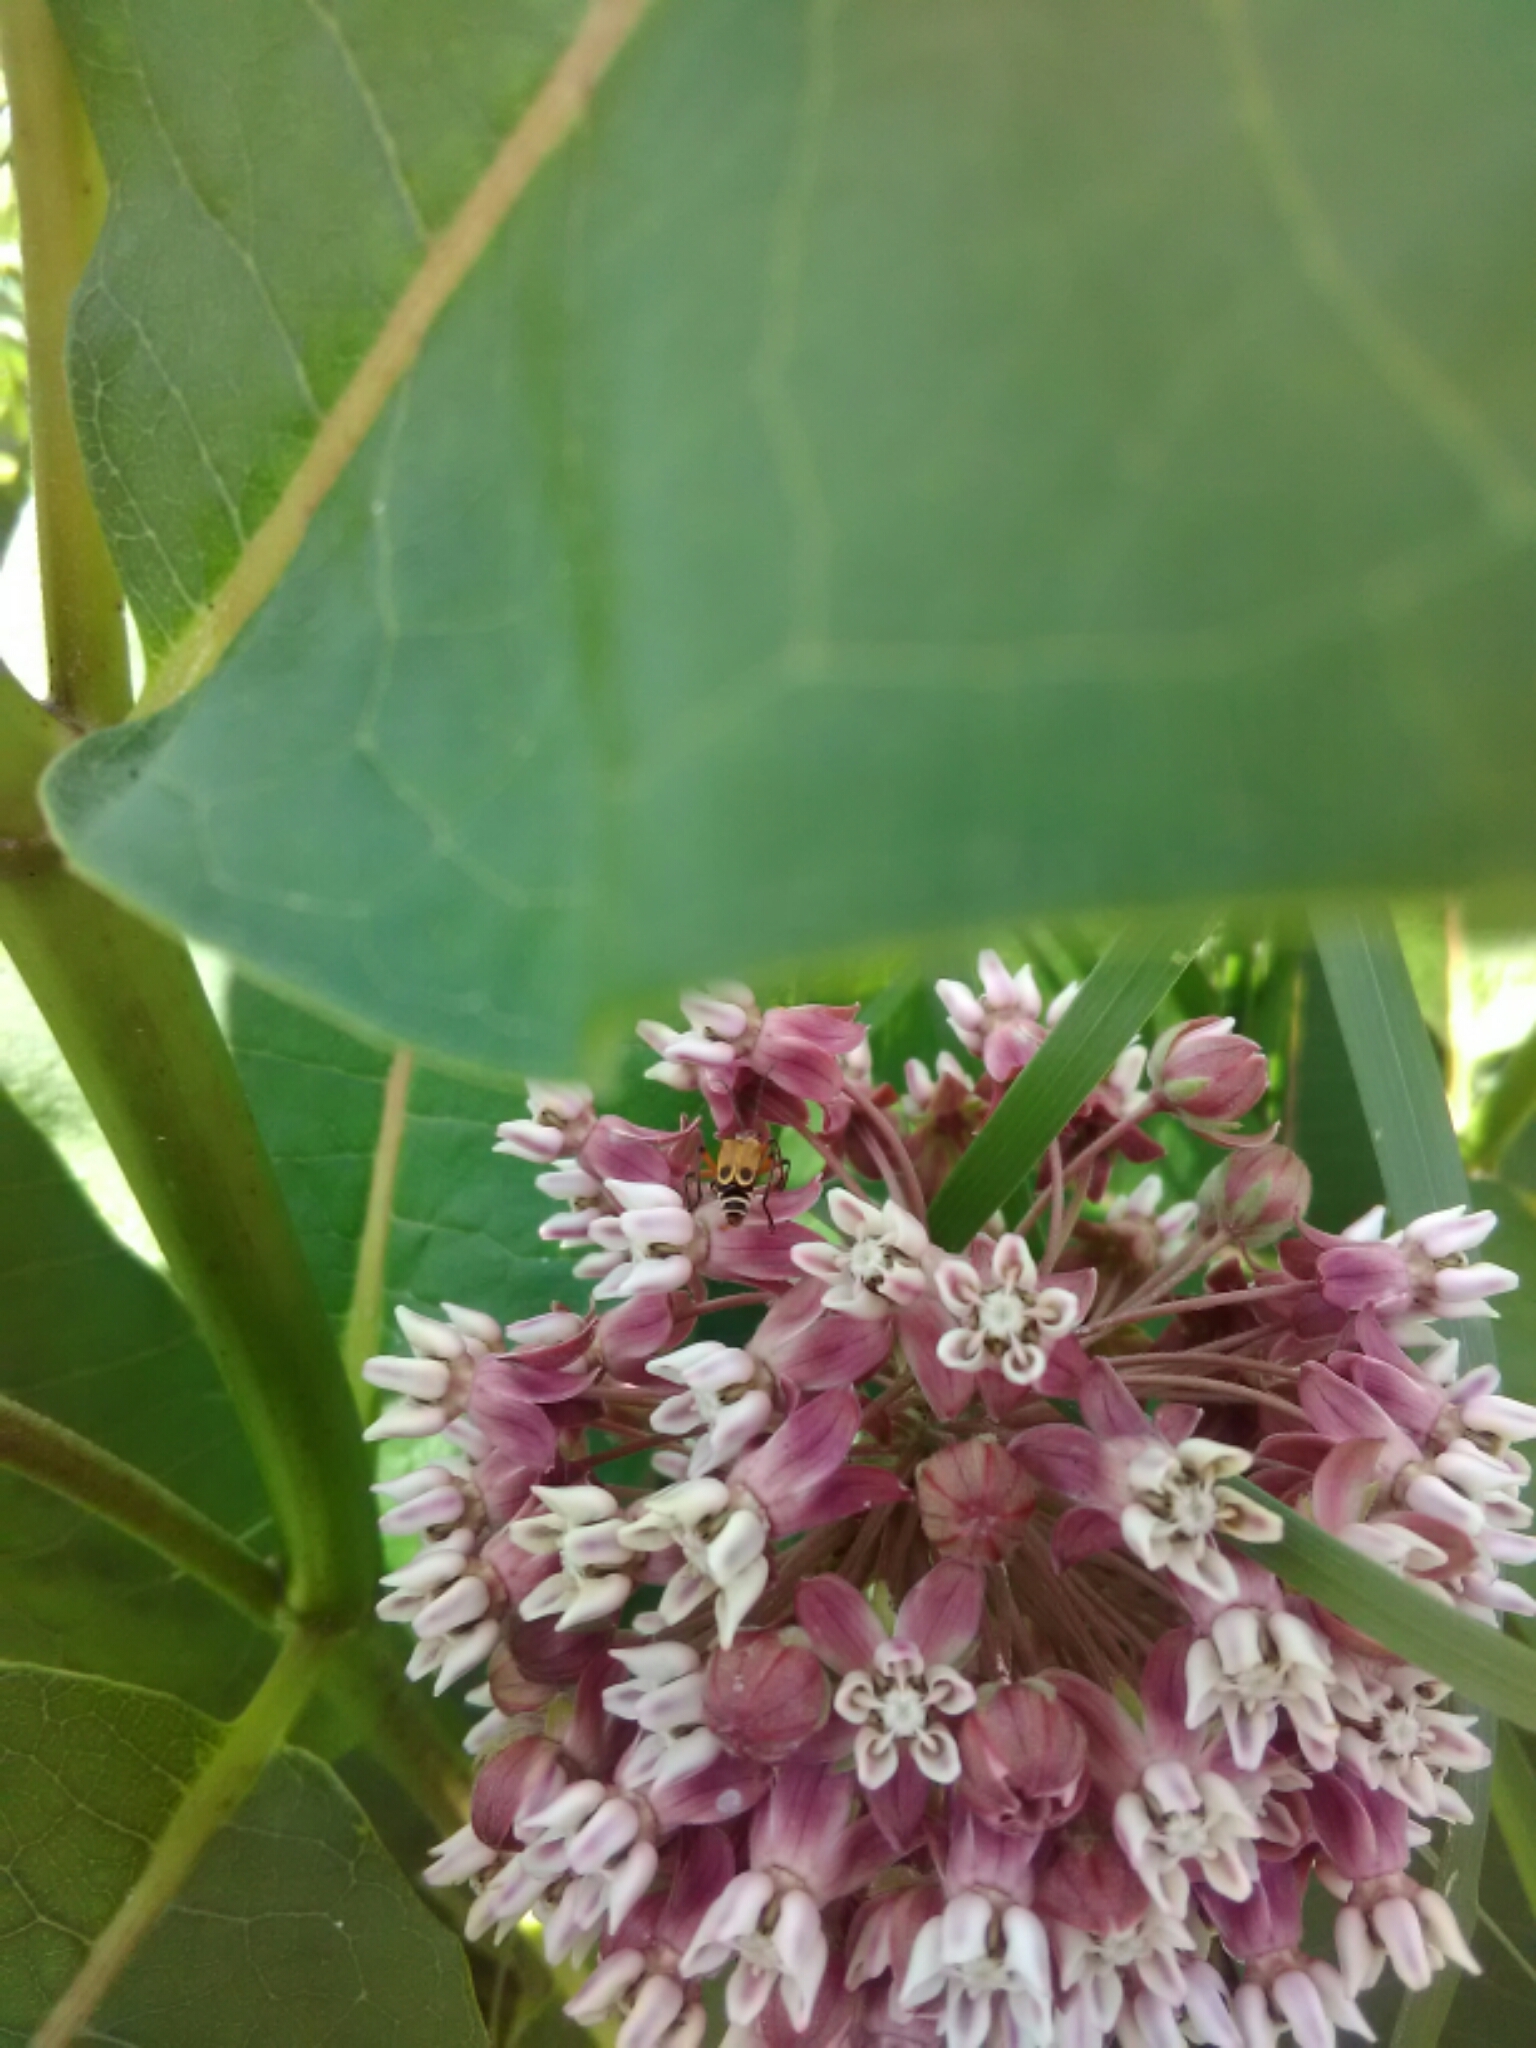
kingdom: Animalia
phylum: Arthropoda
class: Insecta
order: Coleoptera
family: Cantharidae
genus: Chauliognathus
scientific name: Chauliognathus marginatus
